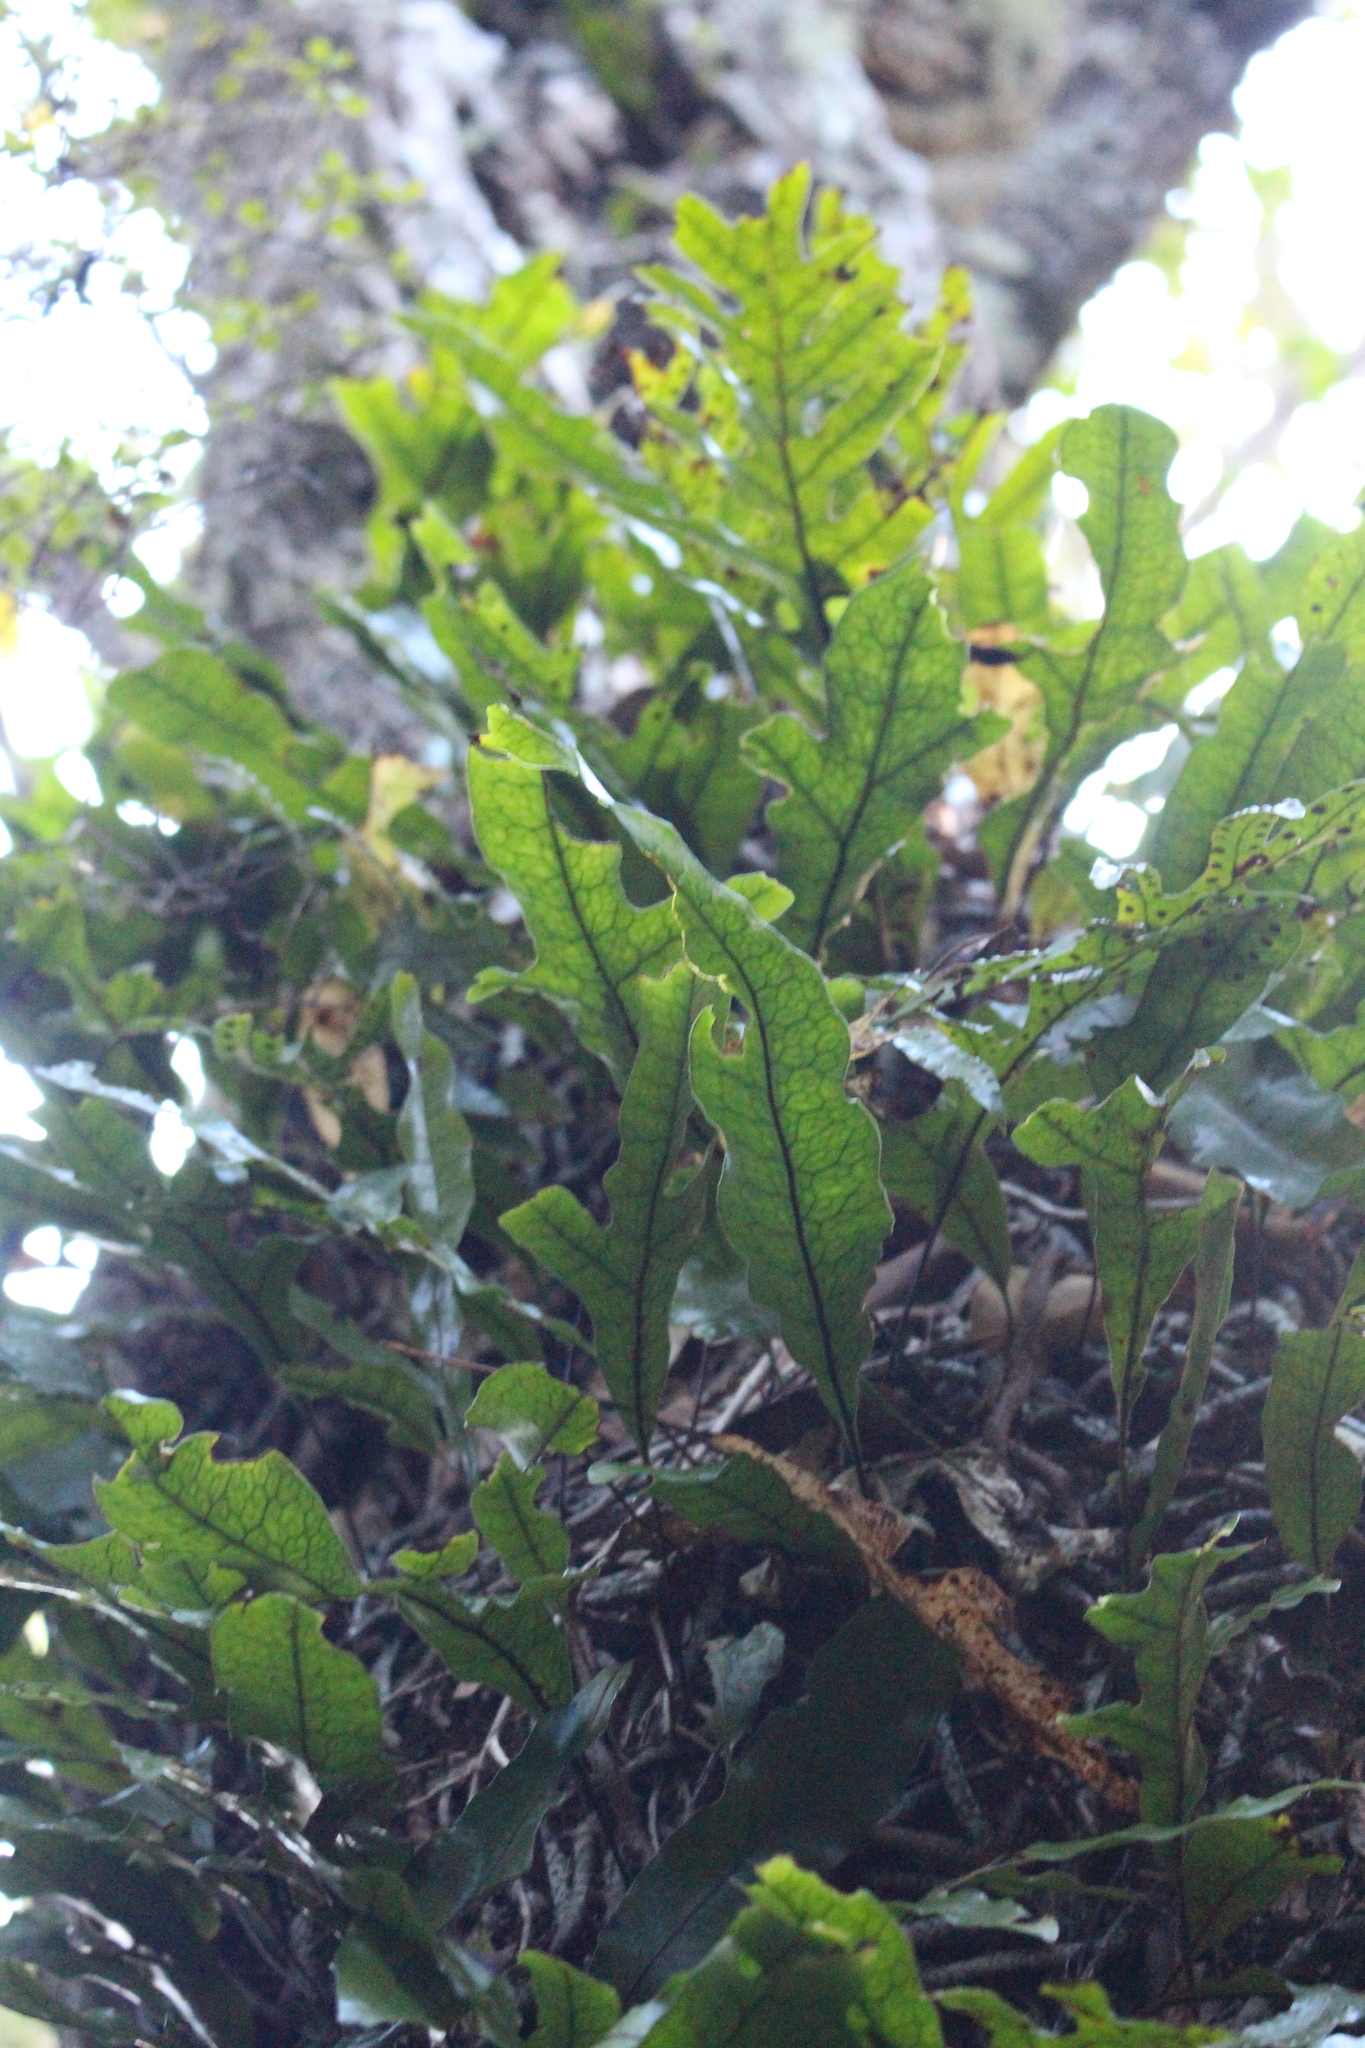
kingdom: Plantae
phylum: Tracheophyta
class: Polypodiopsida
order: Polypodiales
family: Polypodiaceae
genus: Lecanopteris
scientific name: Lecanopteris pustulata
